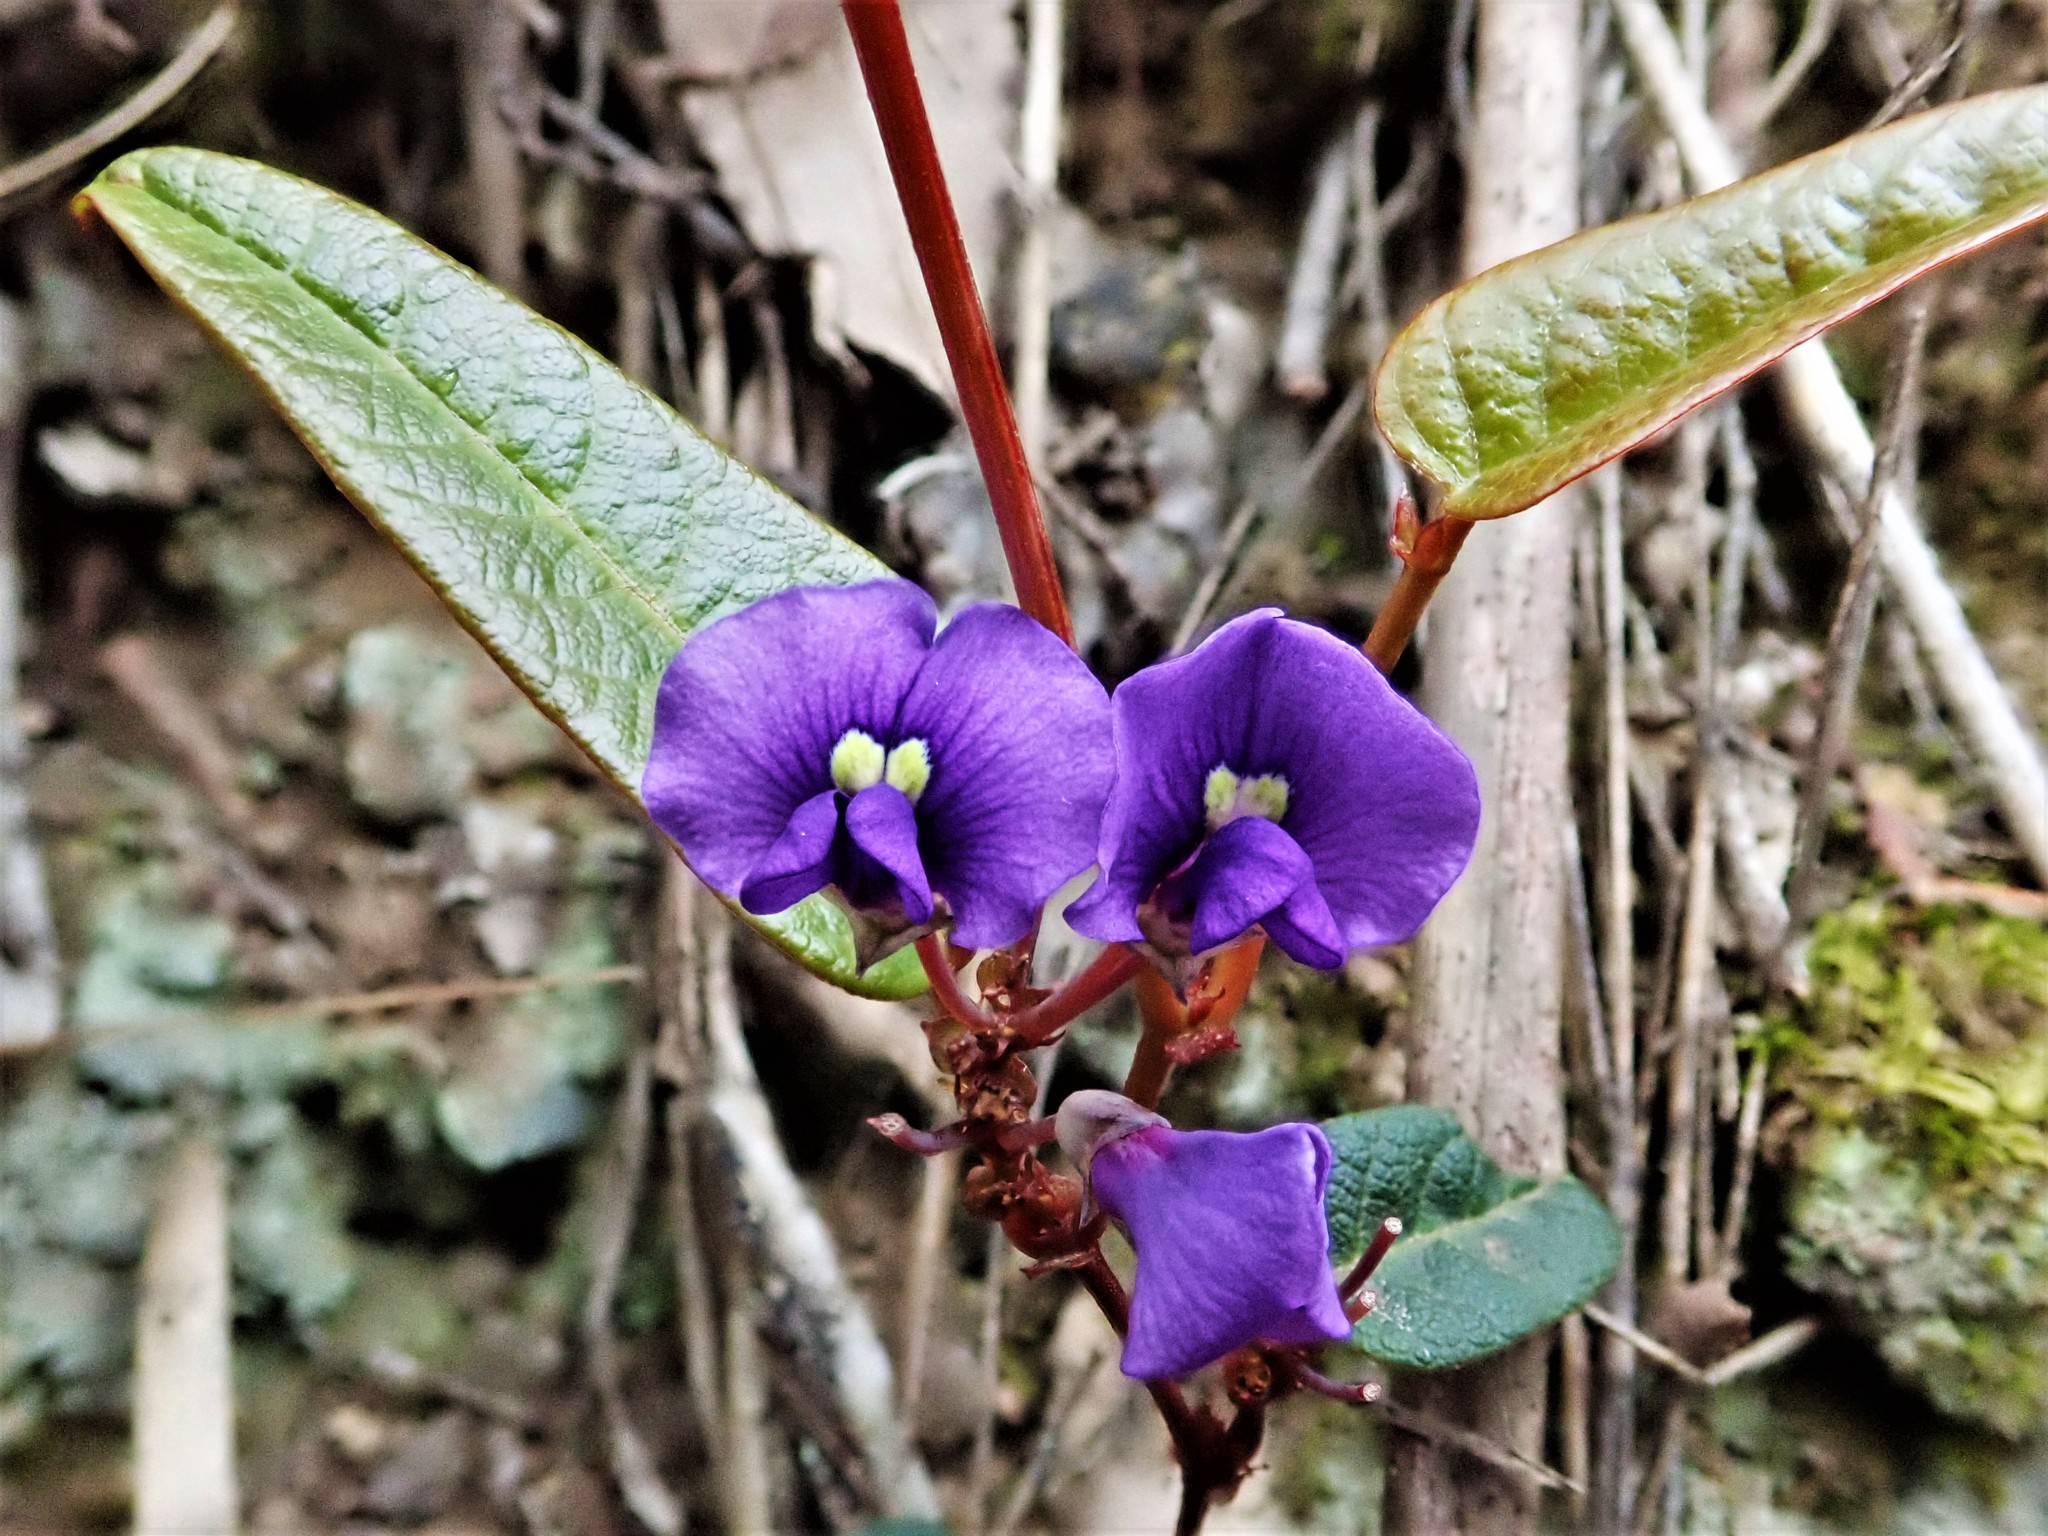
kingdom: Plantae
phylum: Tracheophyta
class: Magnoliopsida
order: Fabales
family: Fabaceae
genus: Hardenbergia
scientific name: Hardenbergia violacea
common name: Coral-pea
